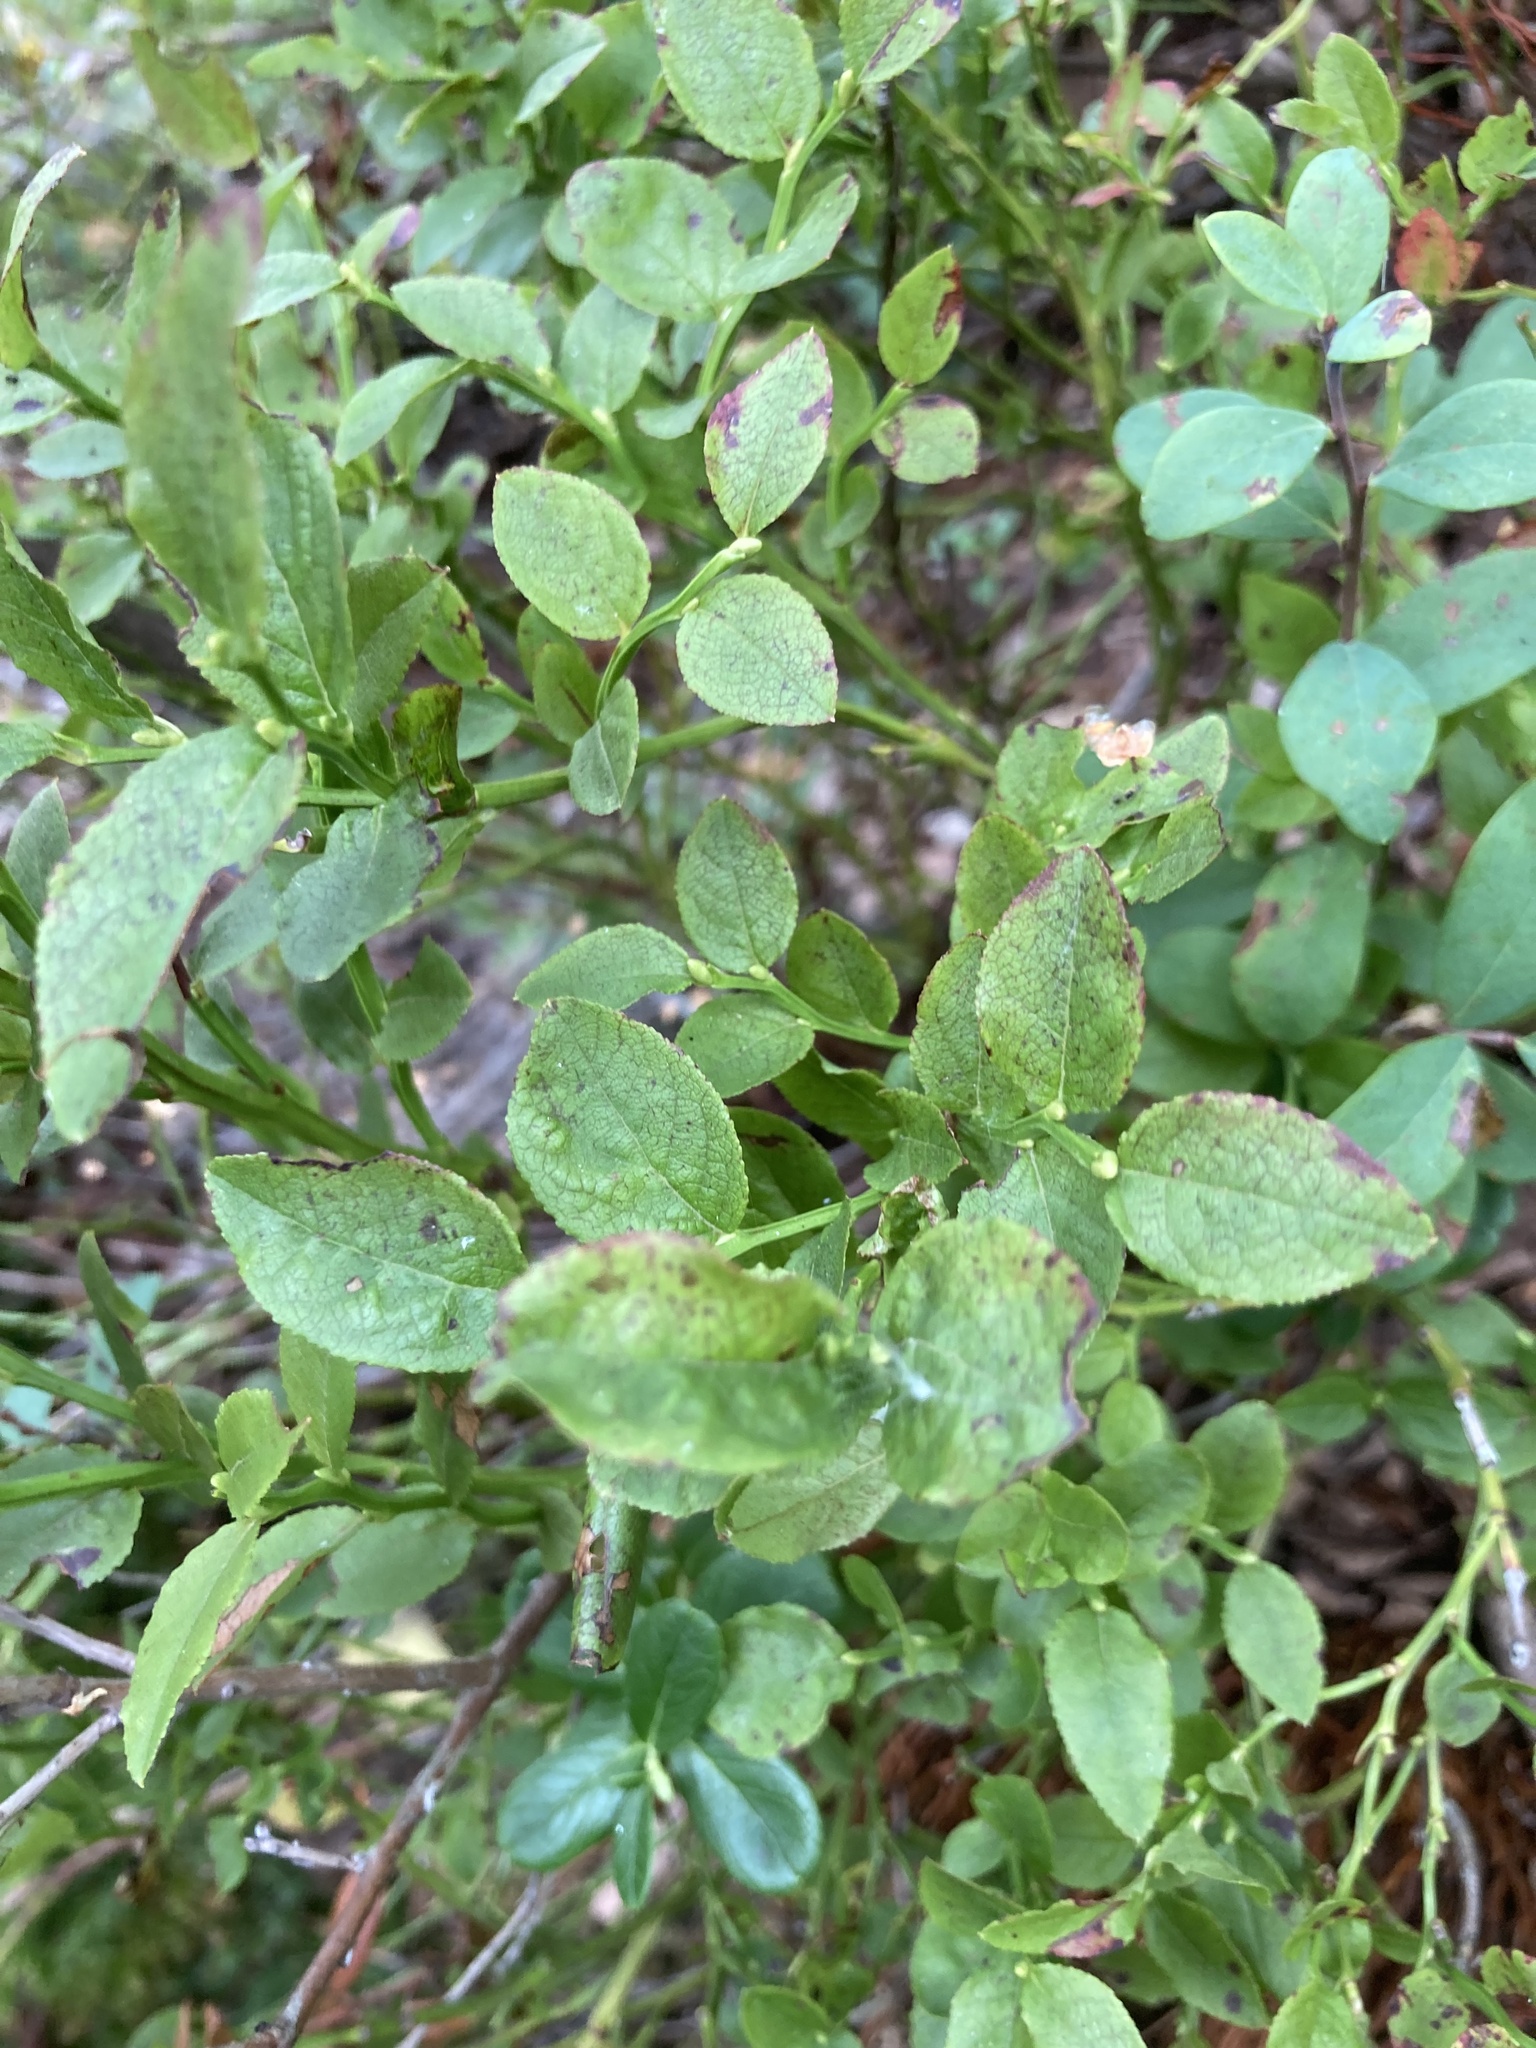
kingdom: Plantae
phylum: Tracheophyta
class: Magnoliopsida
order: Ericales
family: Ericaceae
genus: Vaccinium
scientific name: Vaccinium myrtillus
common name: Bilberry
